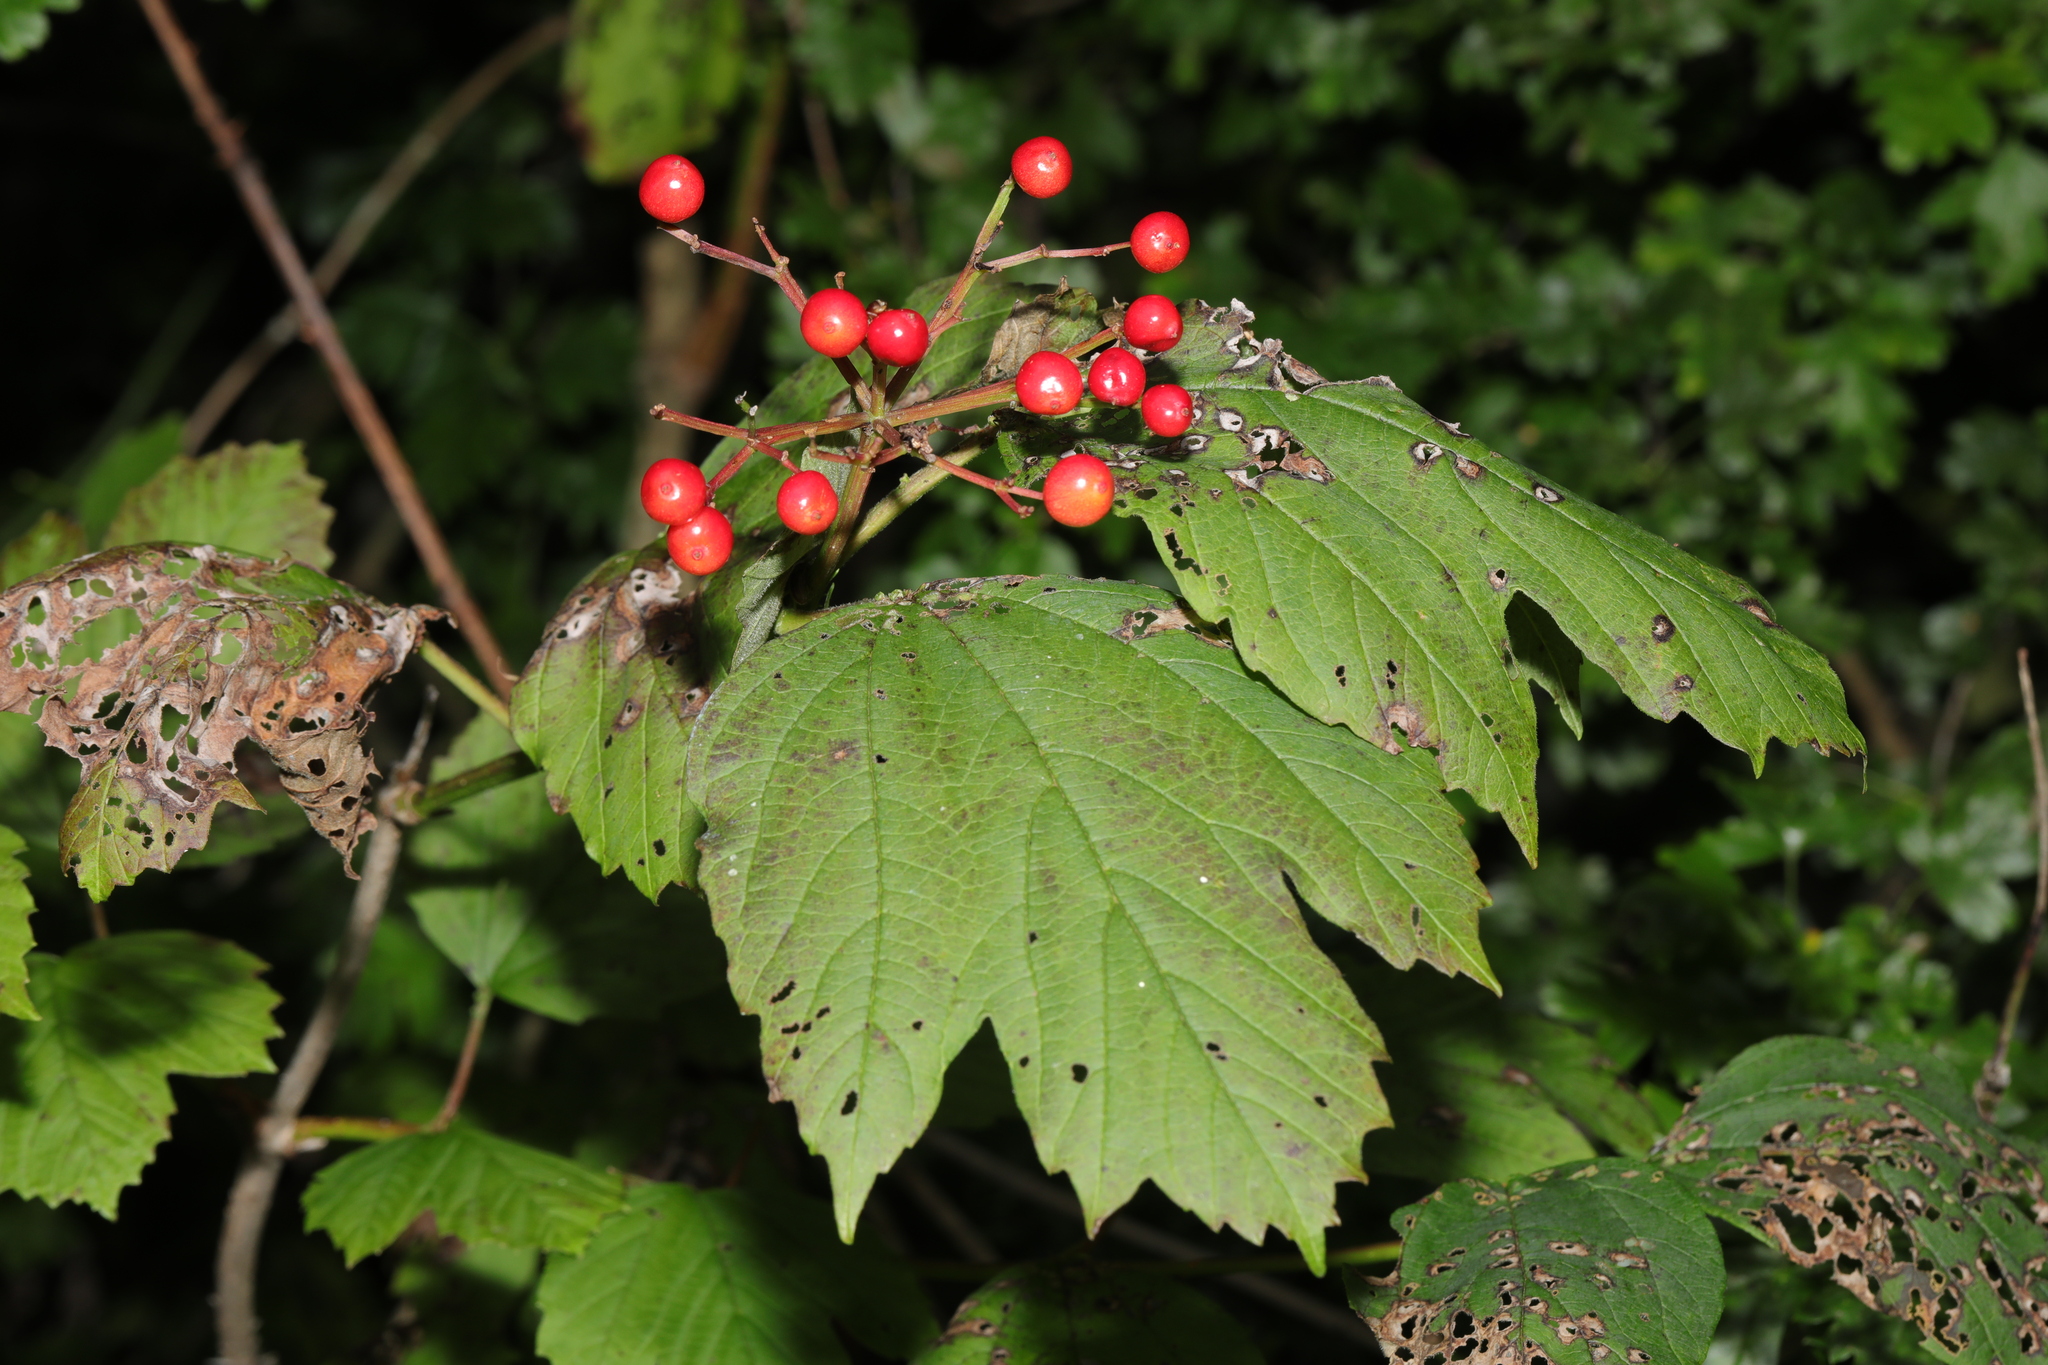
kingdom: Plantae
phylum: Tracheophyta
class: Magnoliopsida
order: Dipsacales
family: Viburnaceae
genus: Viburnum
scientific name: Viburnum opulus
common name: Guelder-rose
